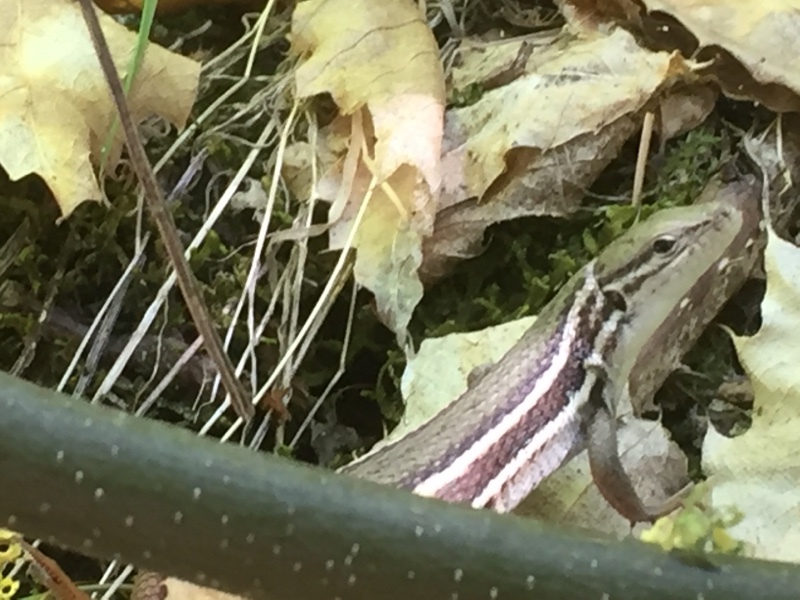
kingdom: Animalia
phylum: Chordata
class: Squamata
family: Lacertidae
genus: Psammodromus
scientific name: Psammodromus algirus
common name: Algerian psammodromus
